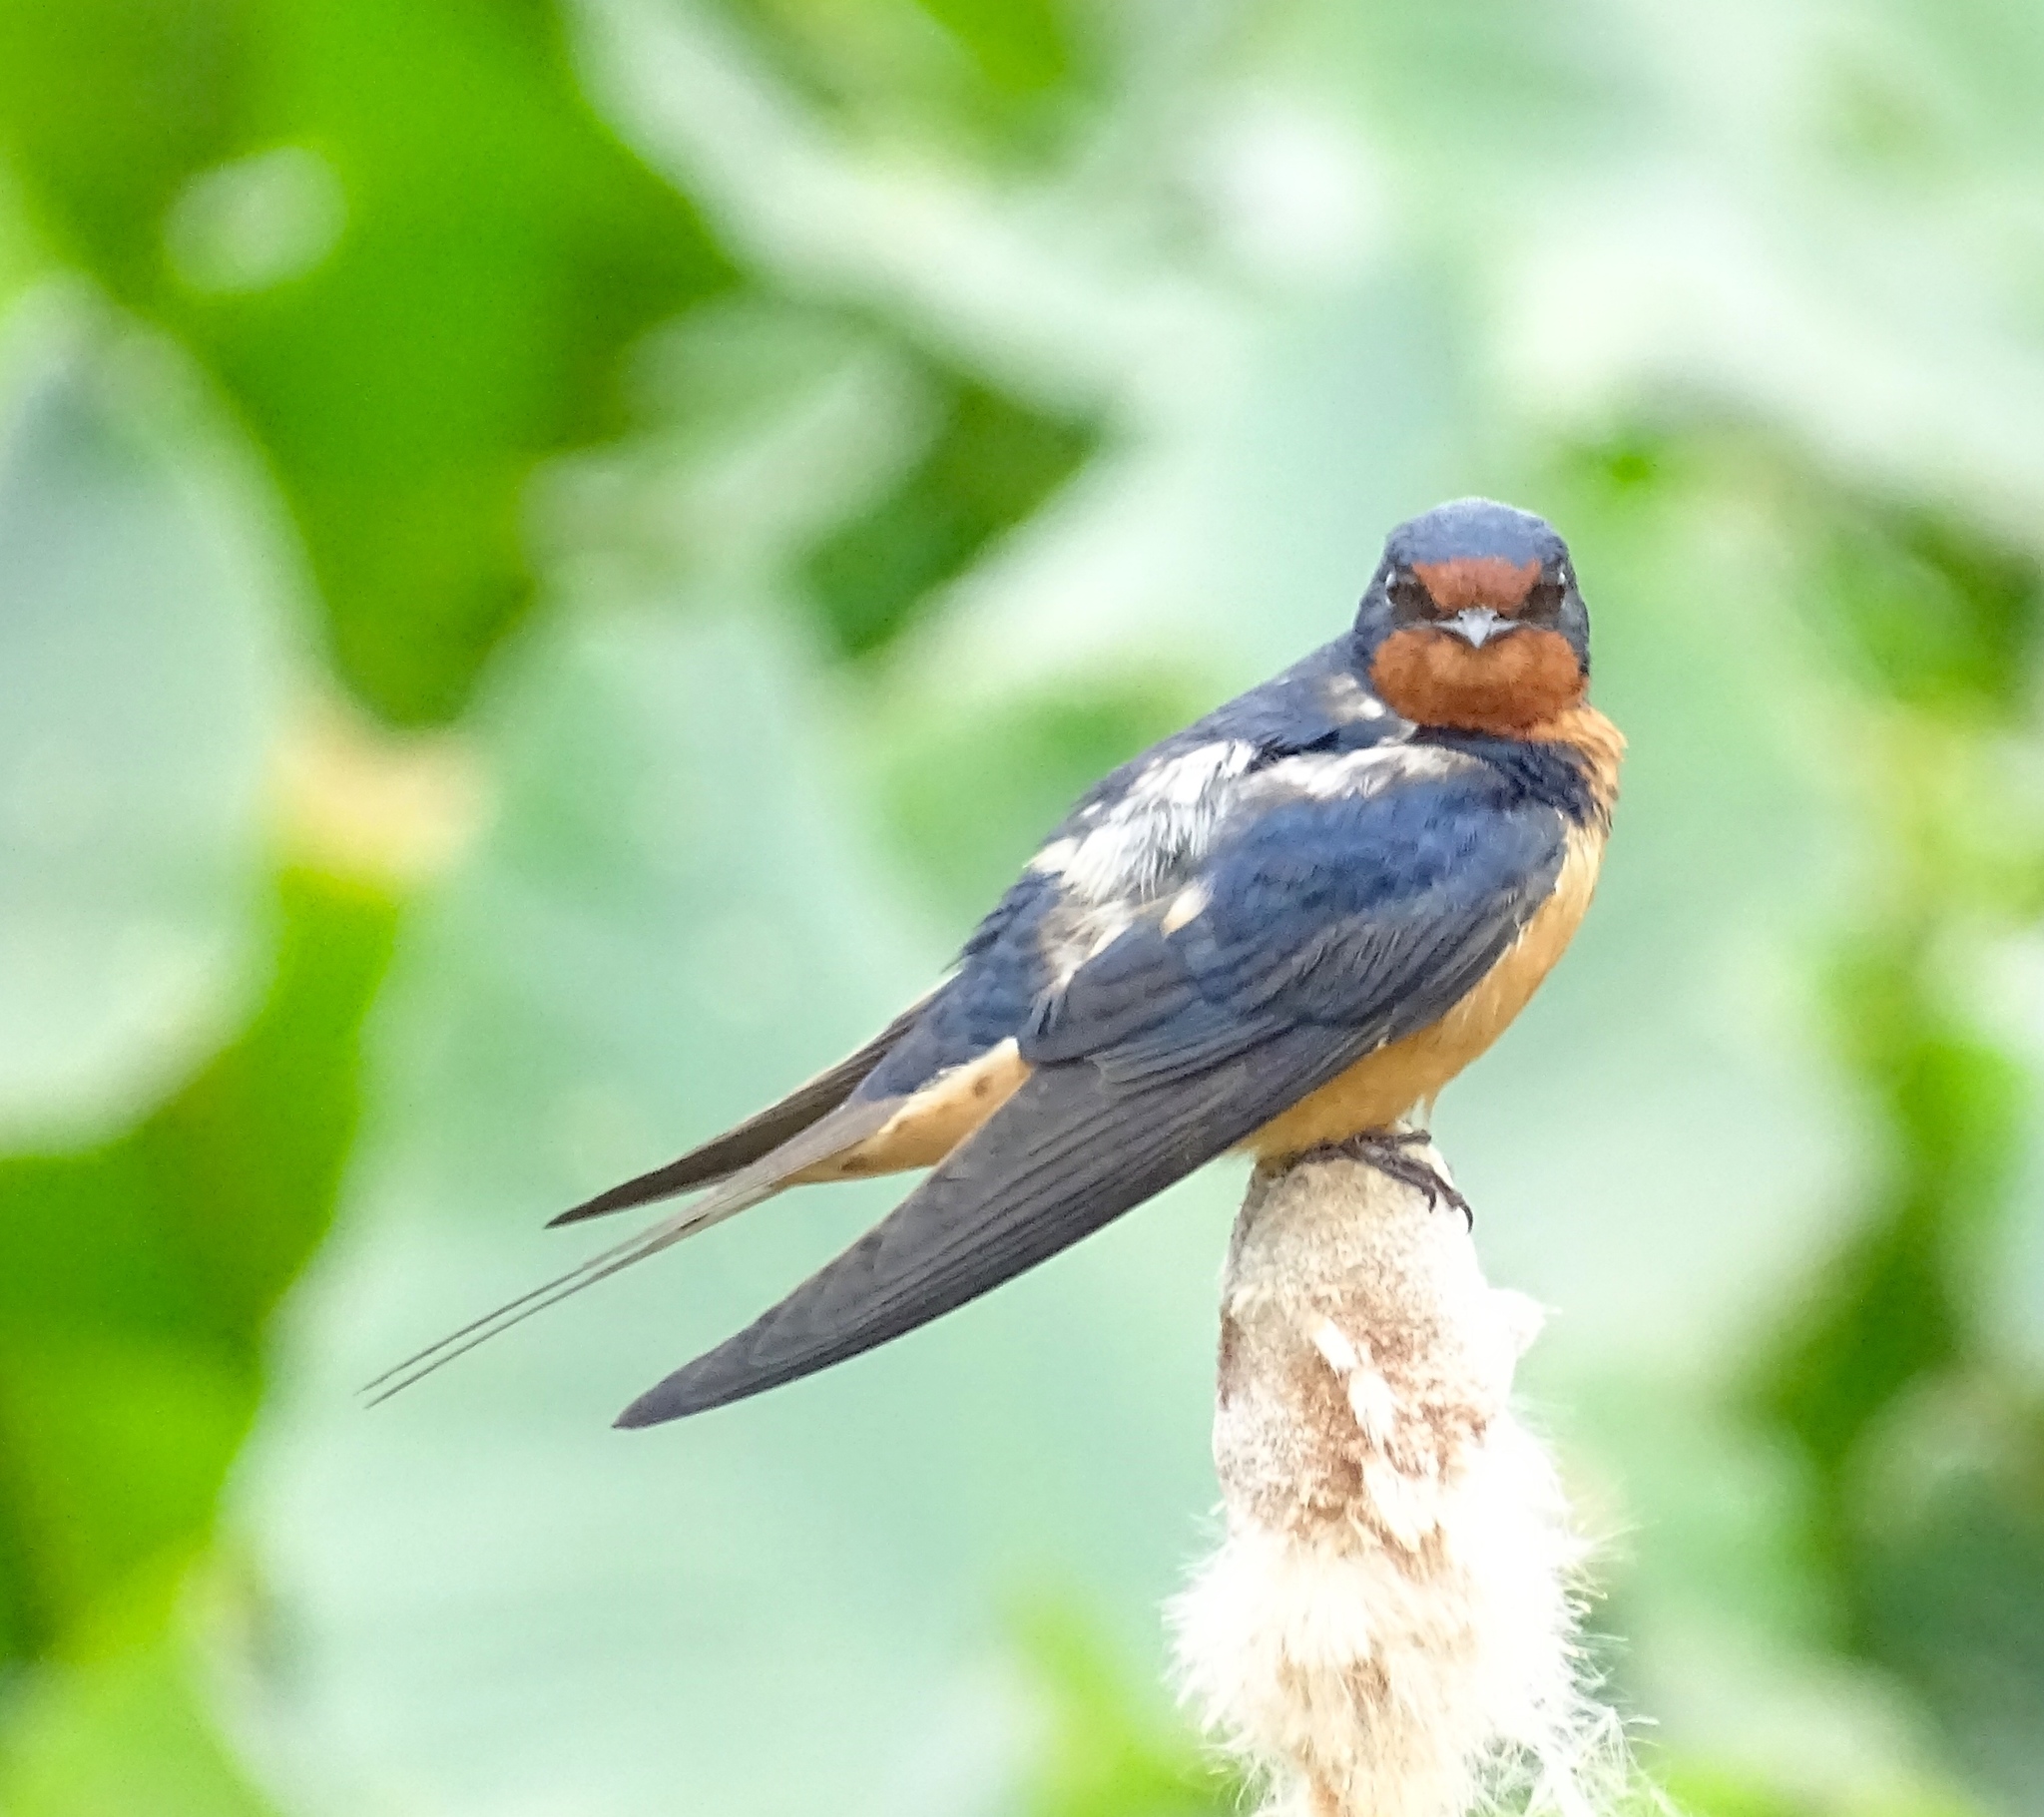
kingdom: Animalia
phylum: Chordata
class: Aves
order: Passeriformes
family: Hirundinidae
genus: Hirundo
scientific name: Hirundo rustica
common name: Barn swallow
